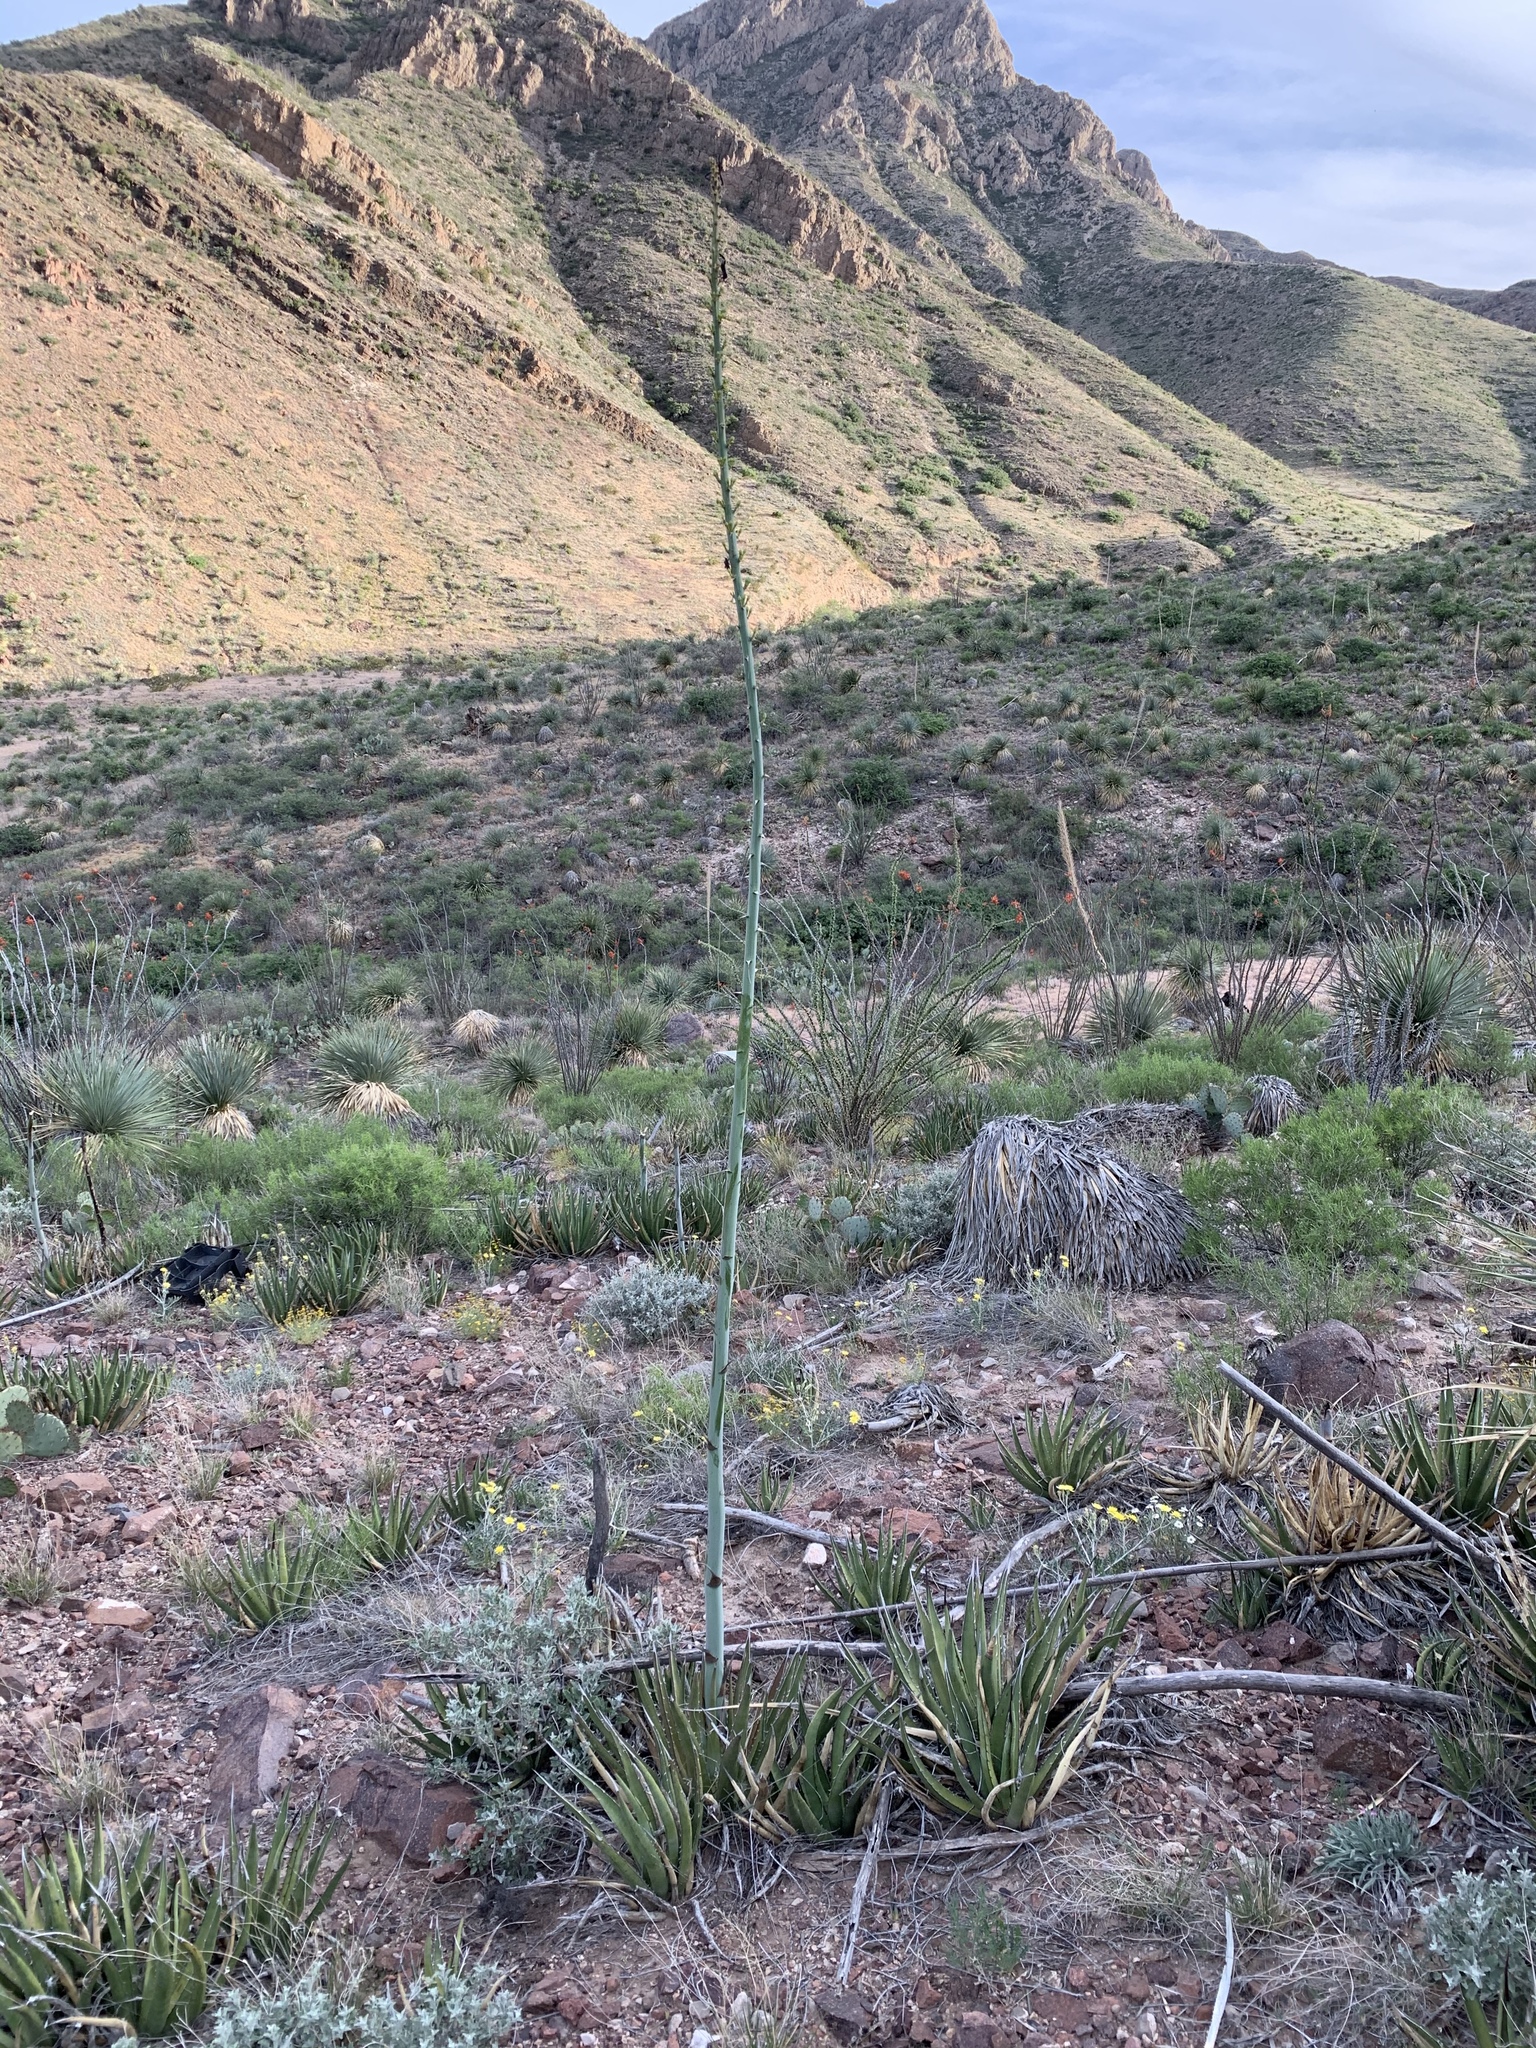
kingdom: Plantae
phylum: Tracheophyta
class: Liliopsida
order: Asparagales
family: Asparagaceae
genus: Agave
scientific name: Agave lechuguilla
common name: Lecheguilla agave
